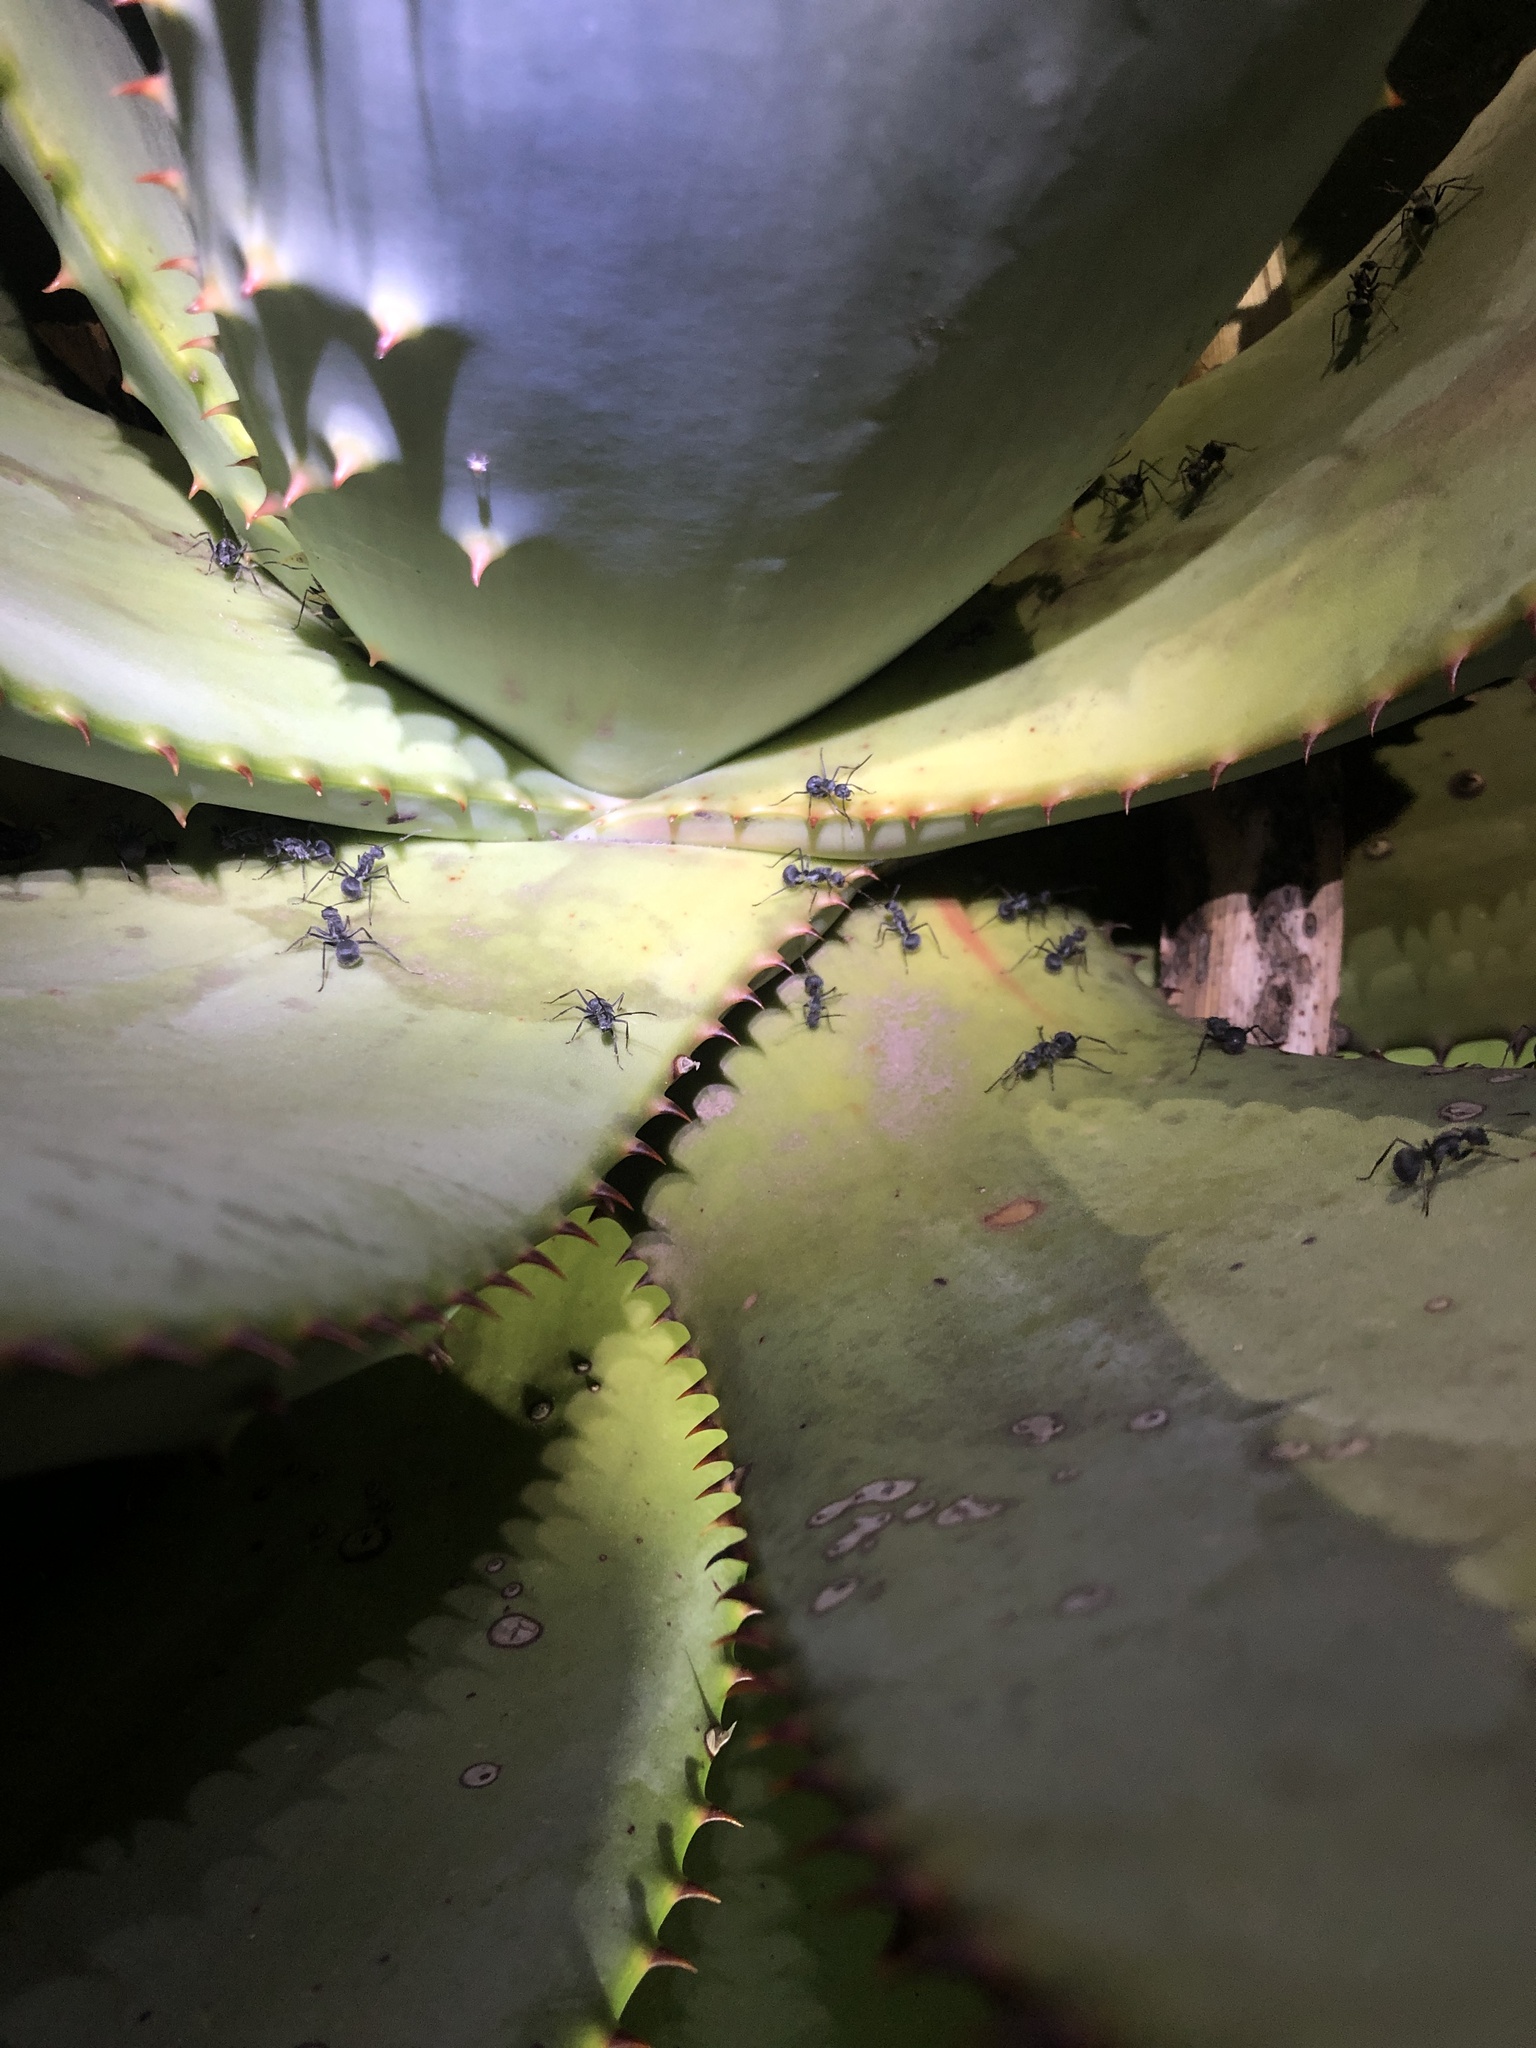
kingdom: Animalia
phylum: Arthropoda
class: Insecta
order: Hymenoptera
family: Formicidae
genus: Polyrhachis
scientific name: Polyrhachis schistacea
